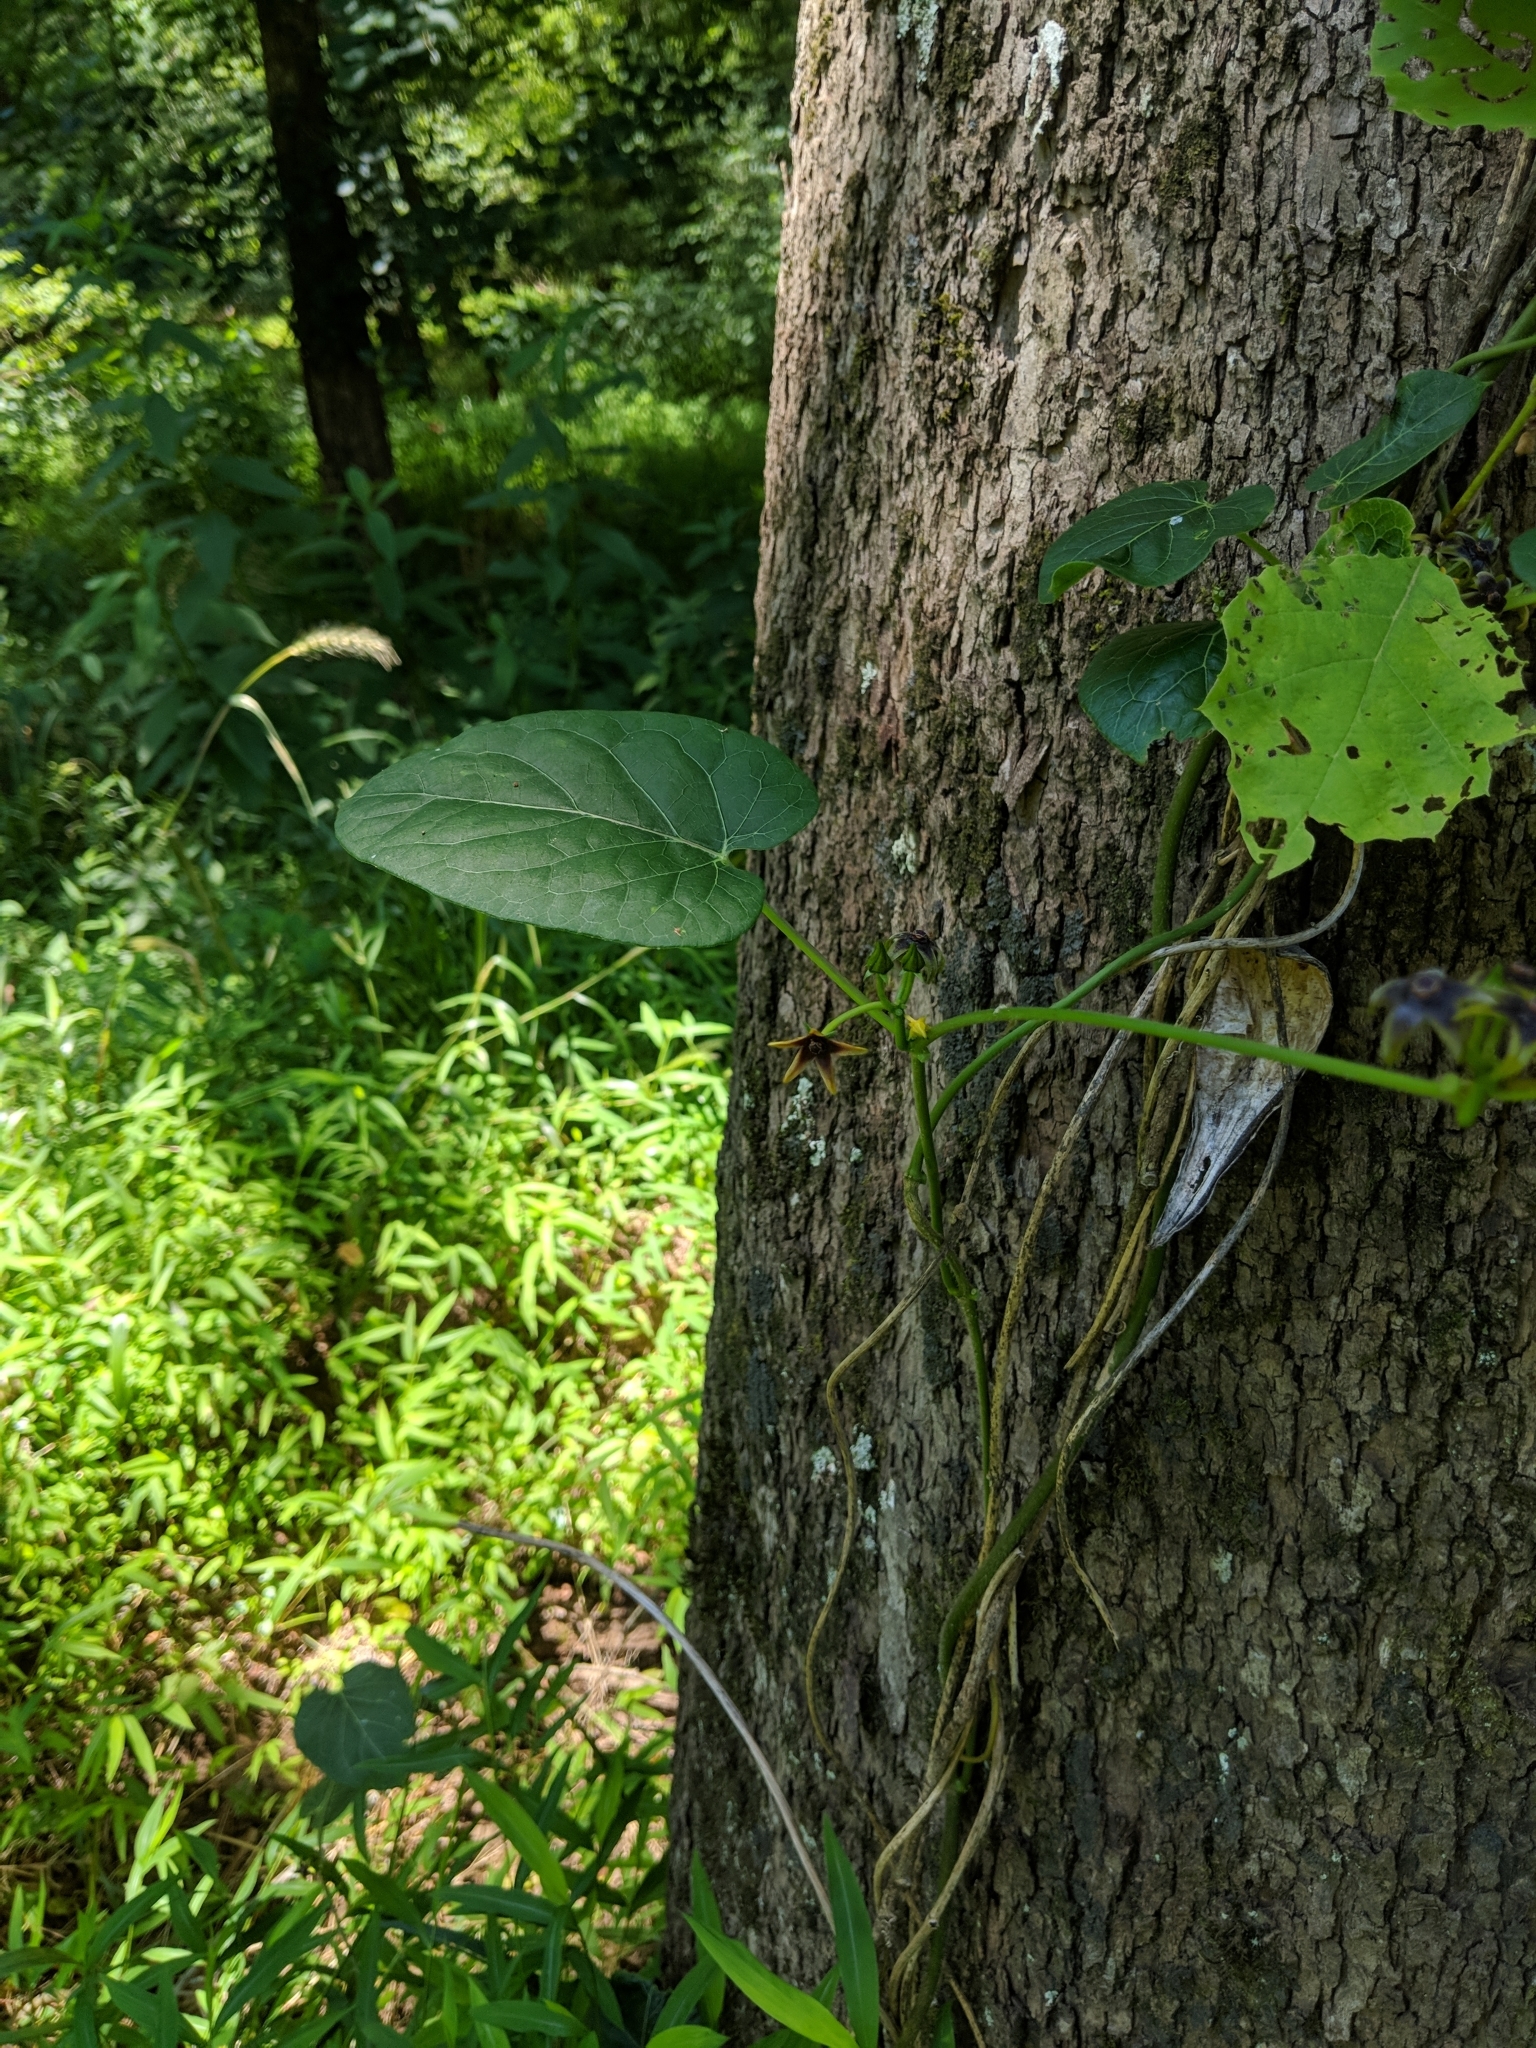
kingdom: Plantae
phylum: Tracheophyta
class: Magnoliopsida
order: Gentianales
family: Apocynaceae
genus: Gonolobus
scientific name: Gonolobus suberosus
